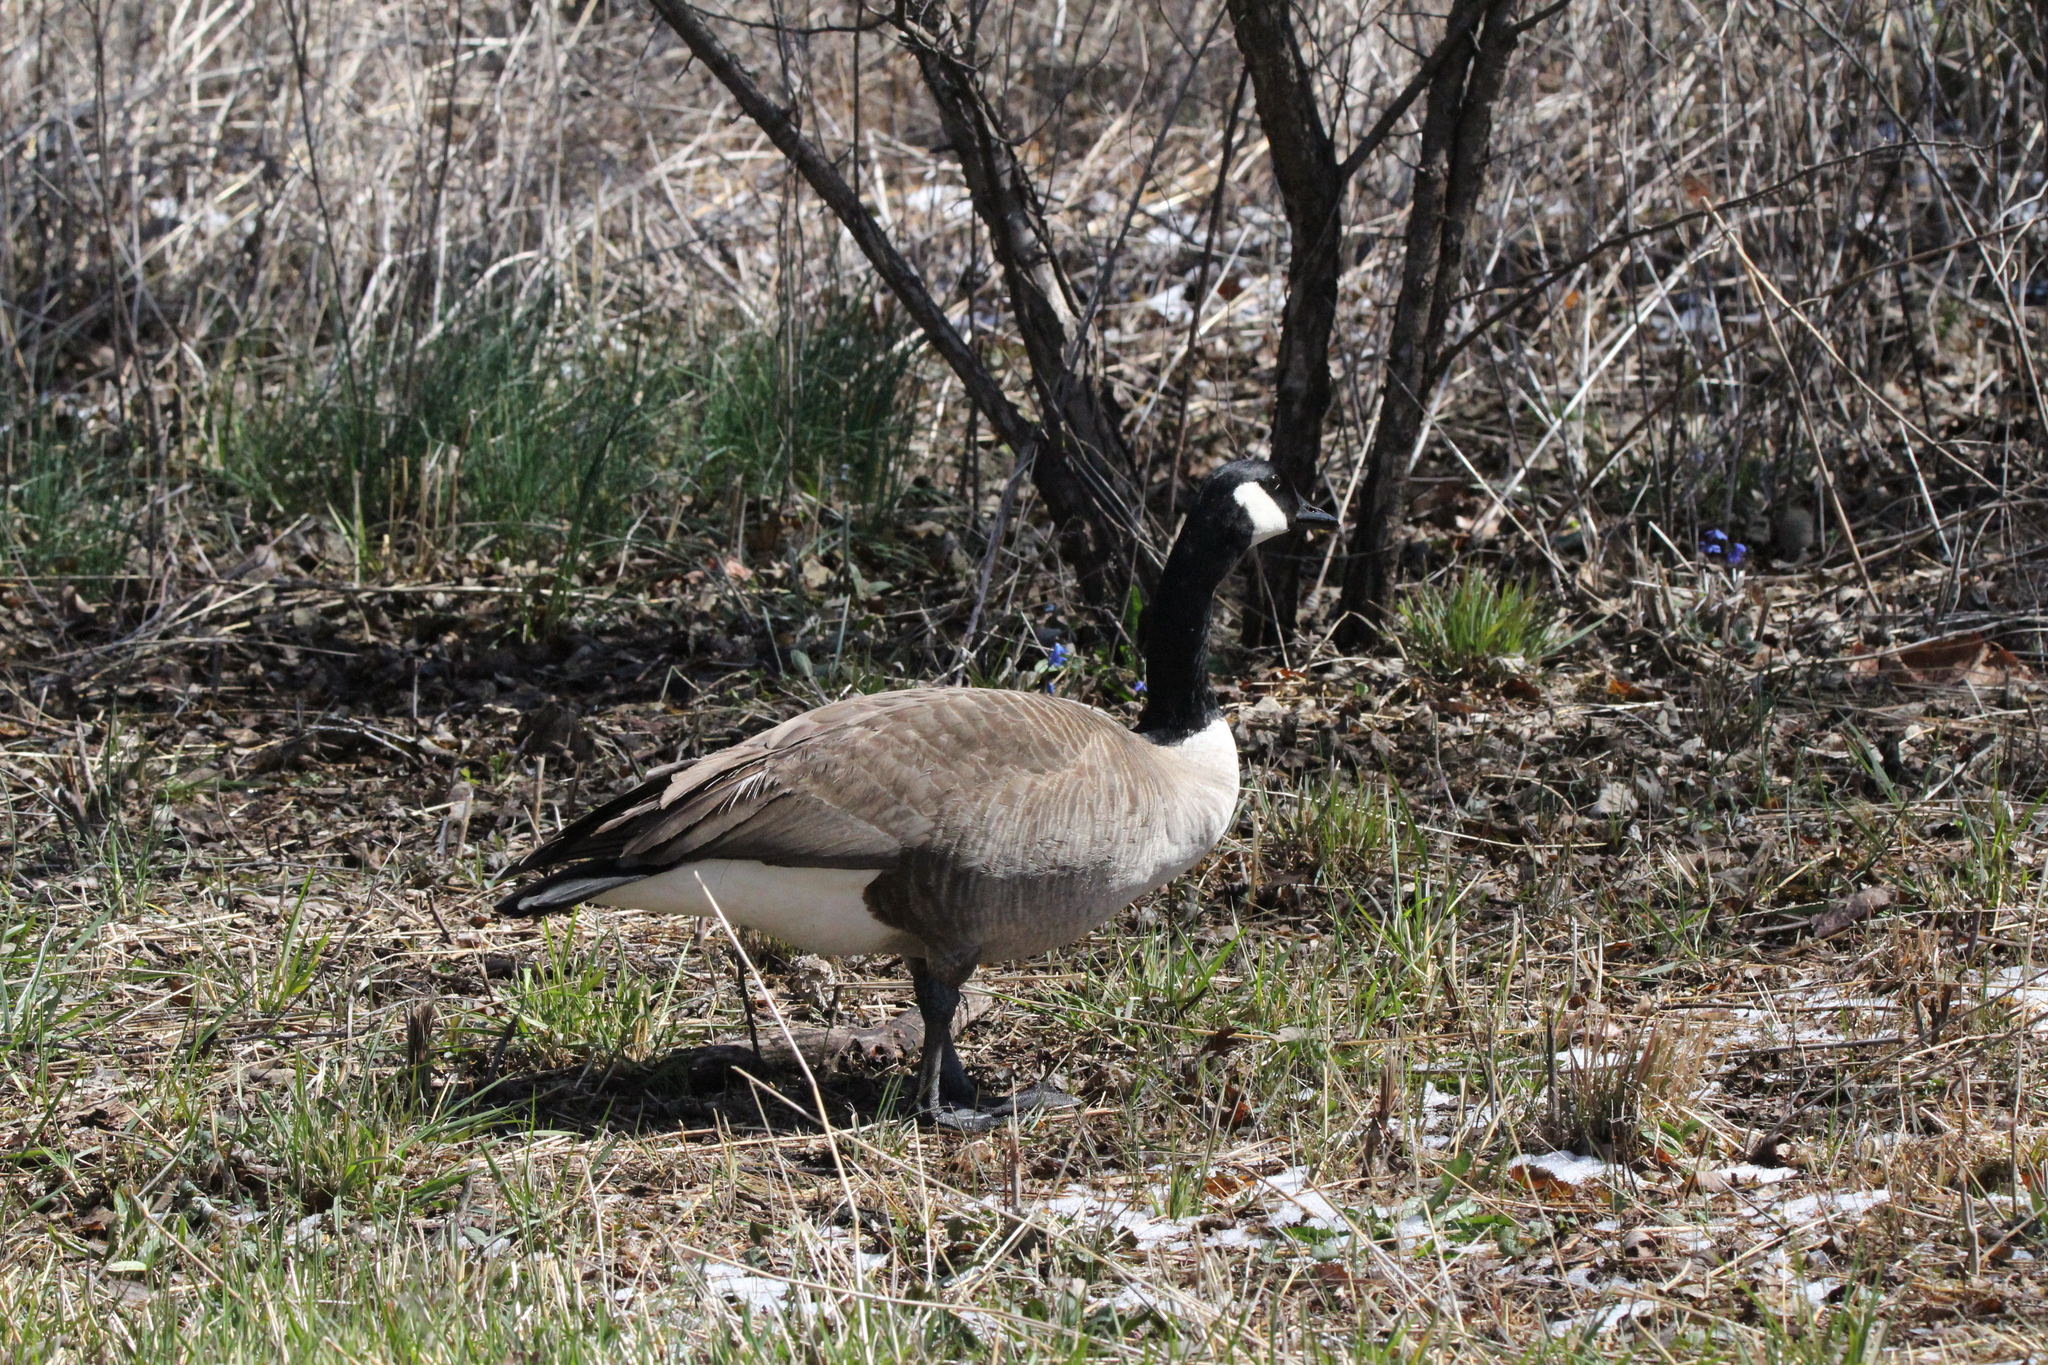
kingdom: Animalia
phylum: Chordata
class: Aves
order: Anseriformes
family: Anatidae
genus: Branta
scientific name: Branta canadensis
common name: Canada goose
